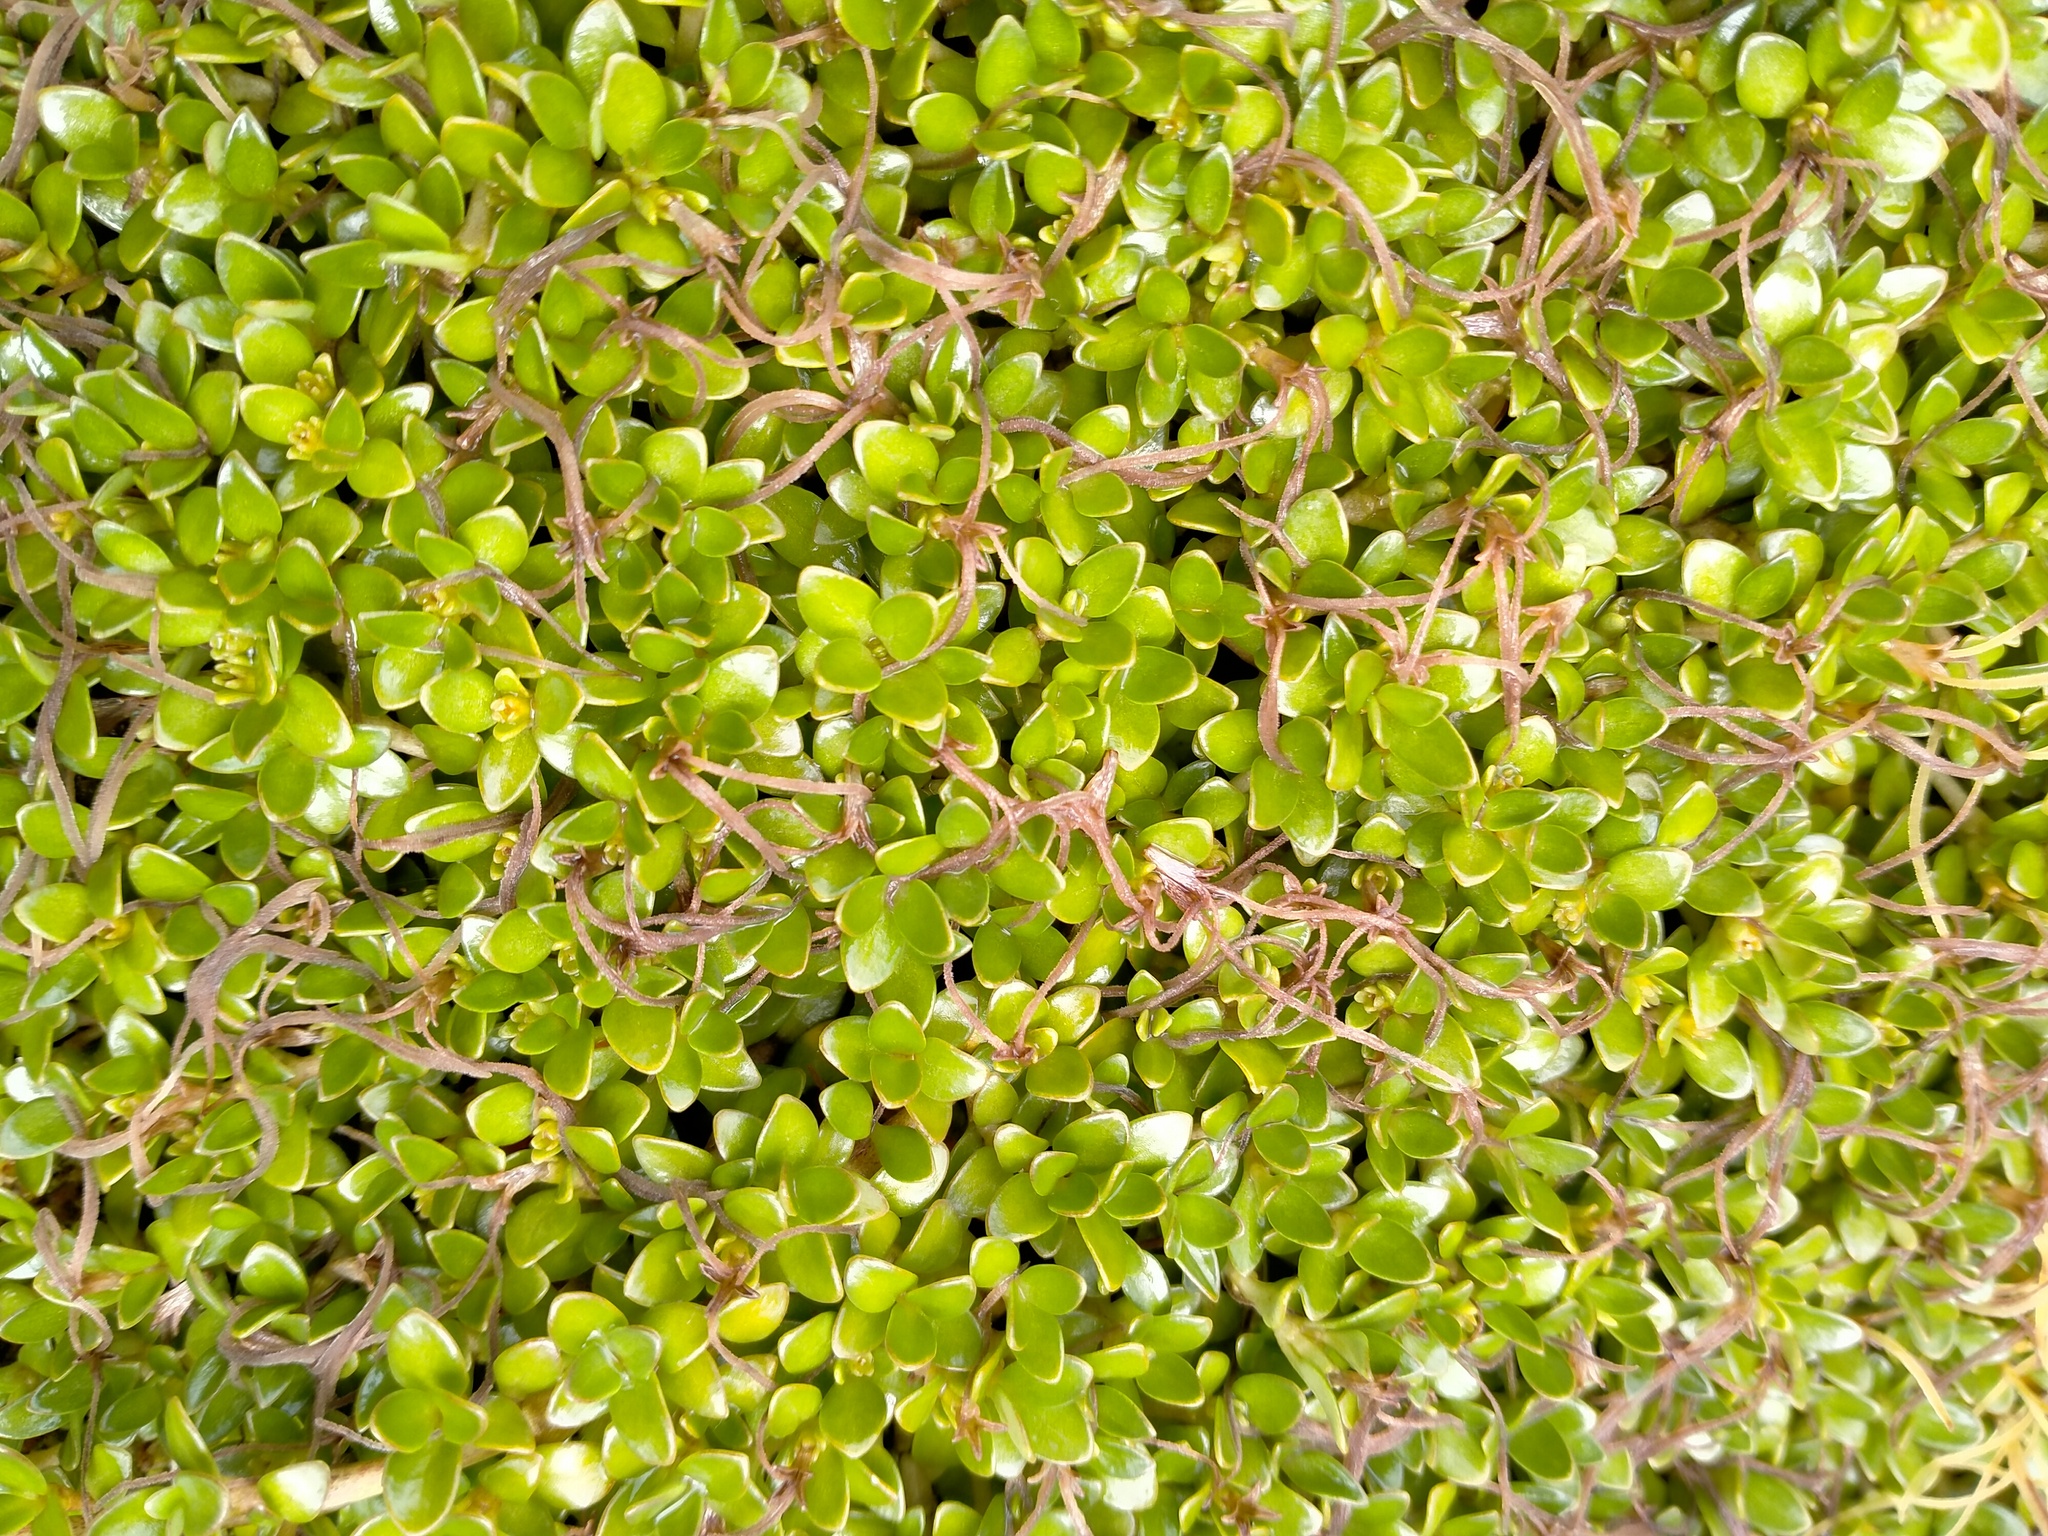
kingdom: Plantae
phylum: Tracheophyta
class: Magnoliopsida
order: Gentianales
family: Rubiaceae
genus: Coprosma
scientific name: Coprosma perpusilla
